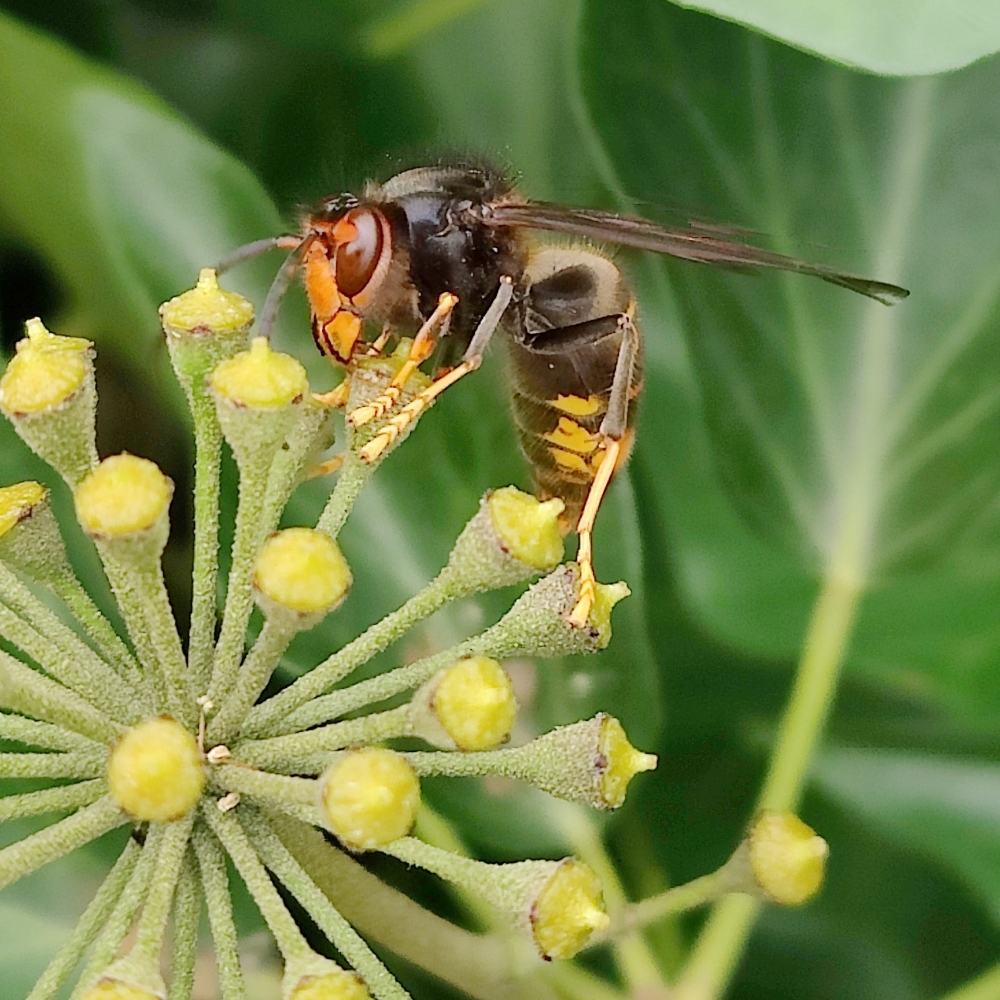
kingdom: Animalia
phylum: Arthropoda
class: Insecta
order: Hymenoptera
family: Vespidae
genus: Vespa
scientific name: Vespa velutina
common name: Asian hornet
